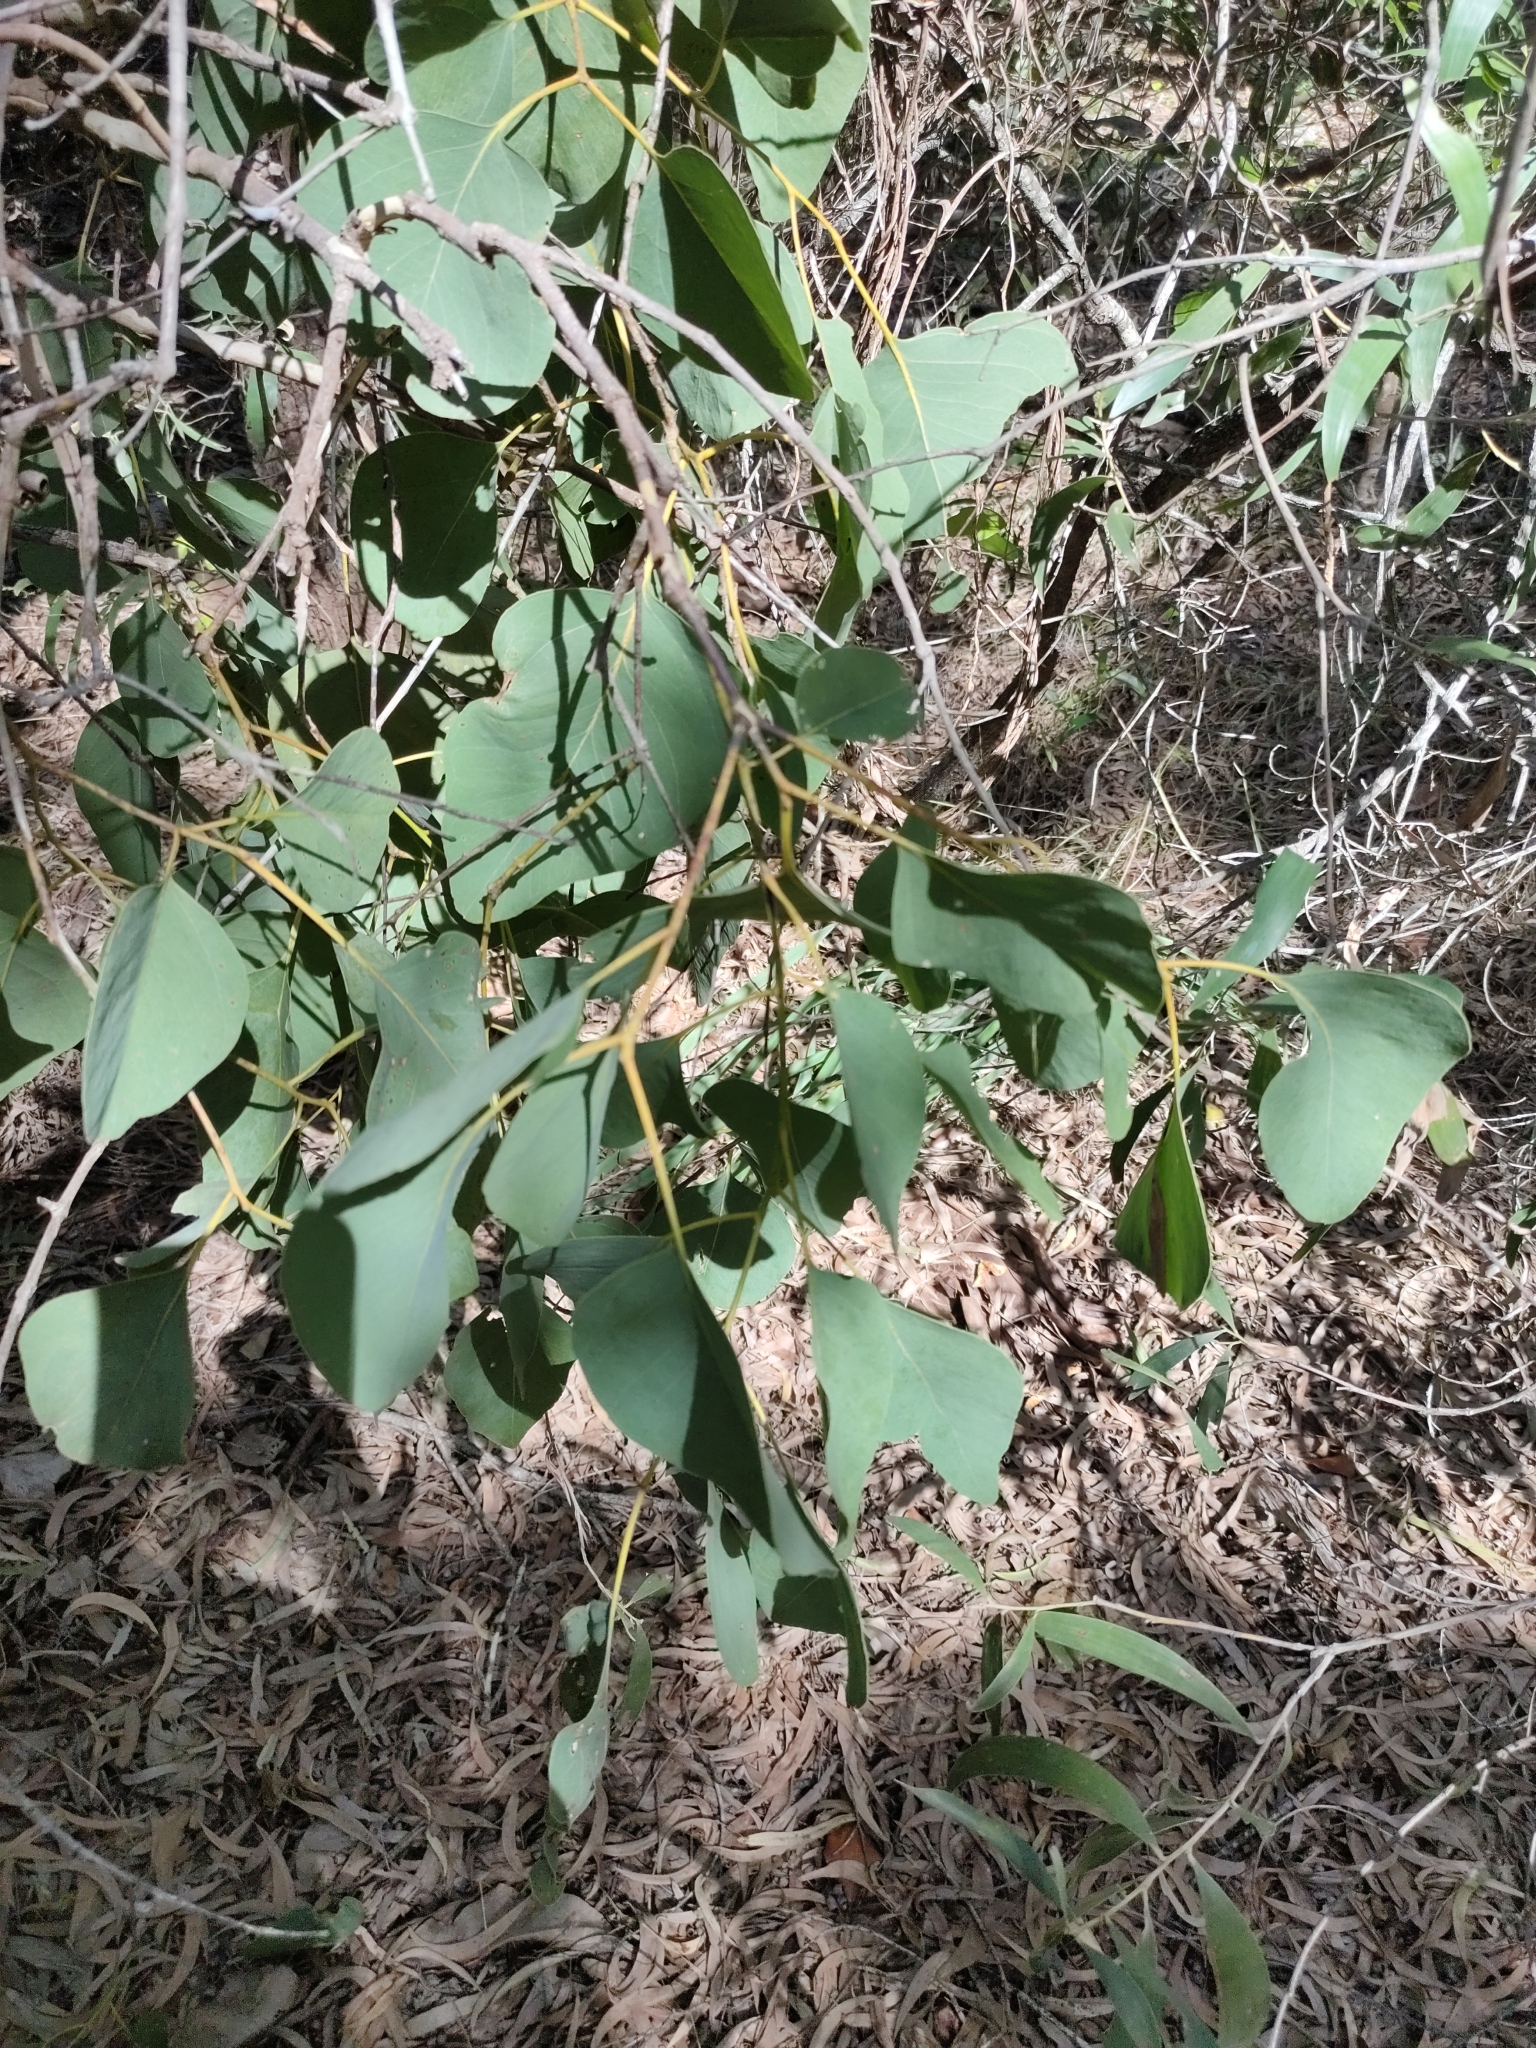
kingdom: Plantae
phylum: Tracheophyta
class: Magnoliopsida
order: Myrtales
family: Myrtaceae
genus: Eucalyptus
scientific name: Eucalyptus platyphylla
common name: Poplar-gum
